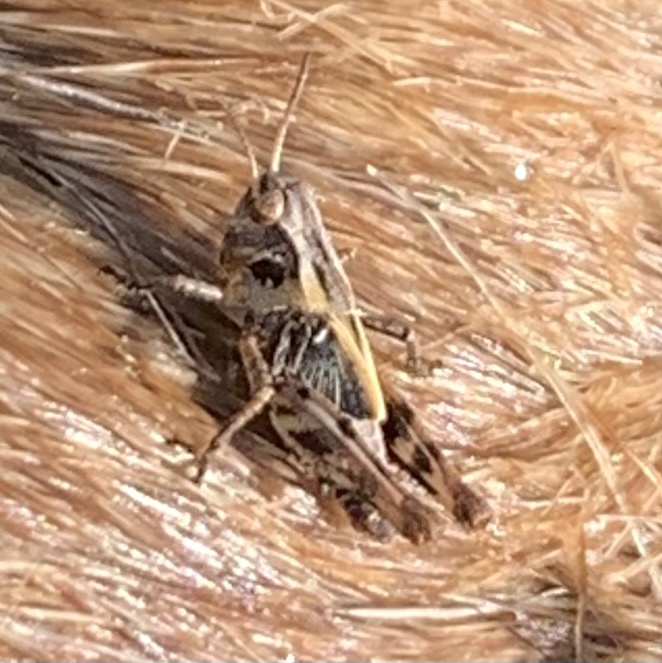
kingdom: Animalia
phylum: Arthropoda
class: Insecta
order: Orthoptera
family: Acrididae
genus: Camnula
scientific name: Camnula pellucida
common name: Clear-winged grasshopper
